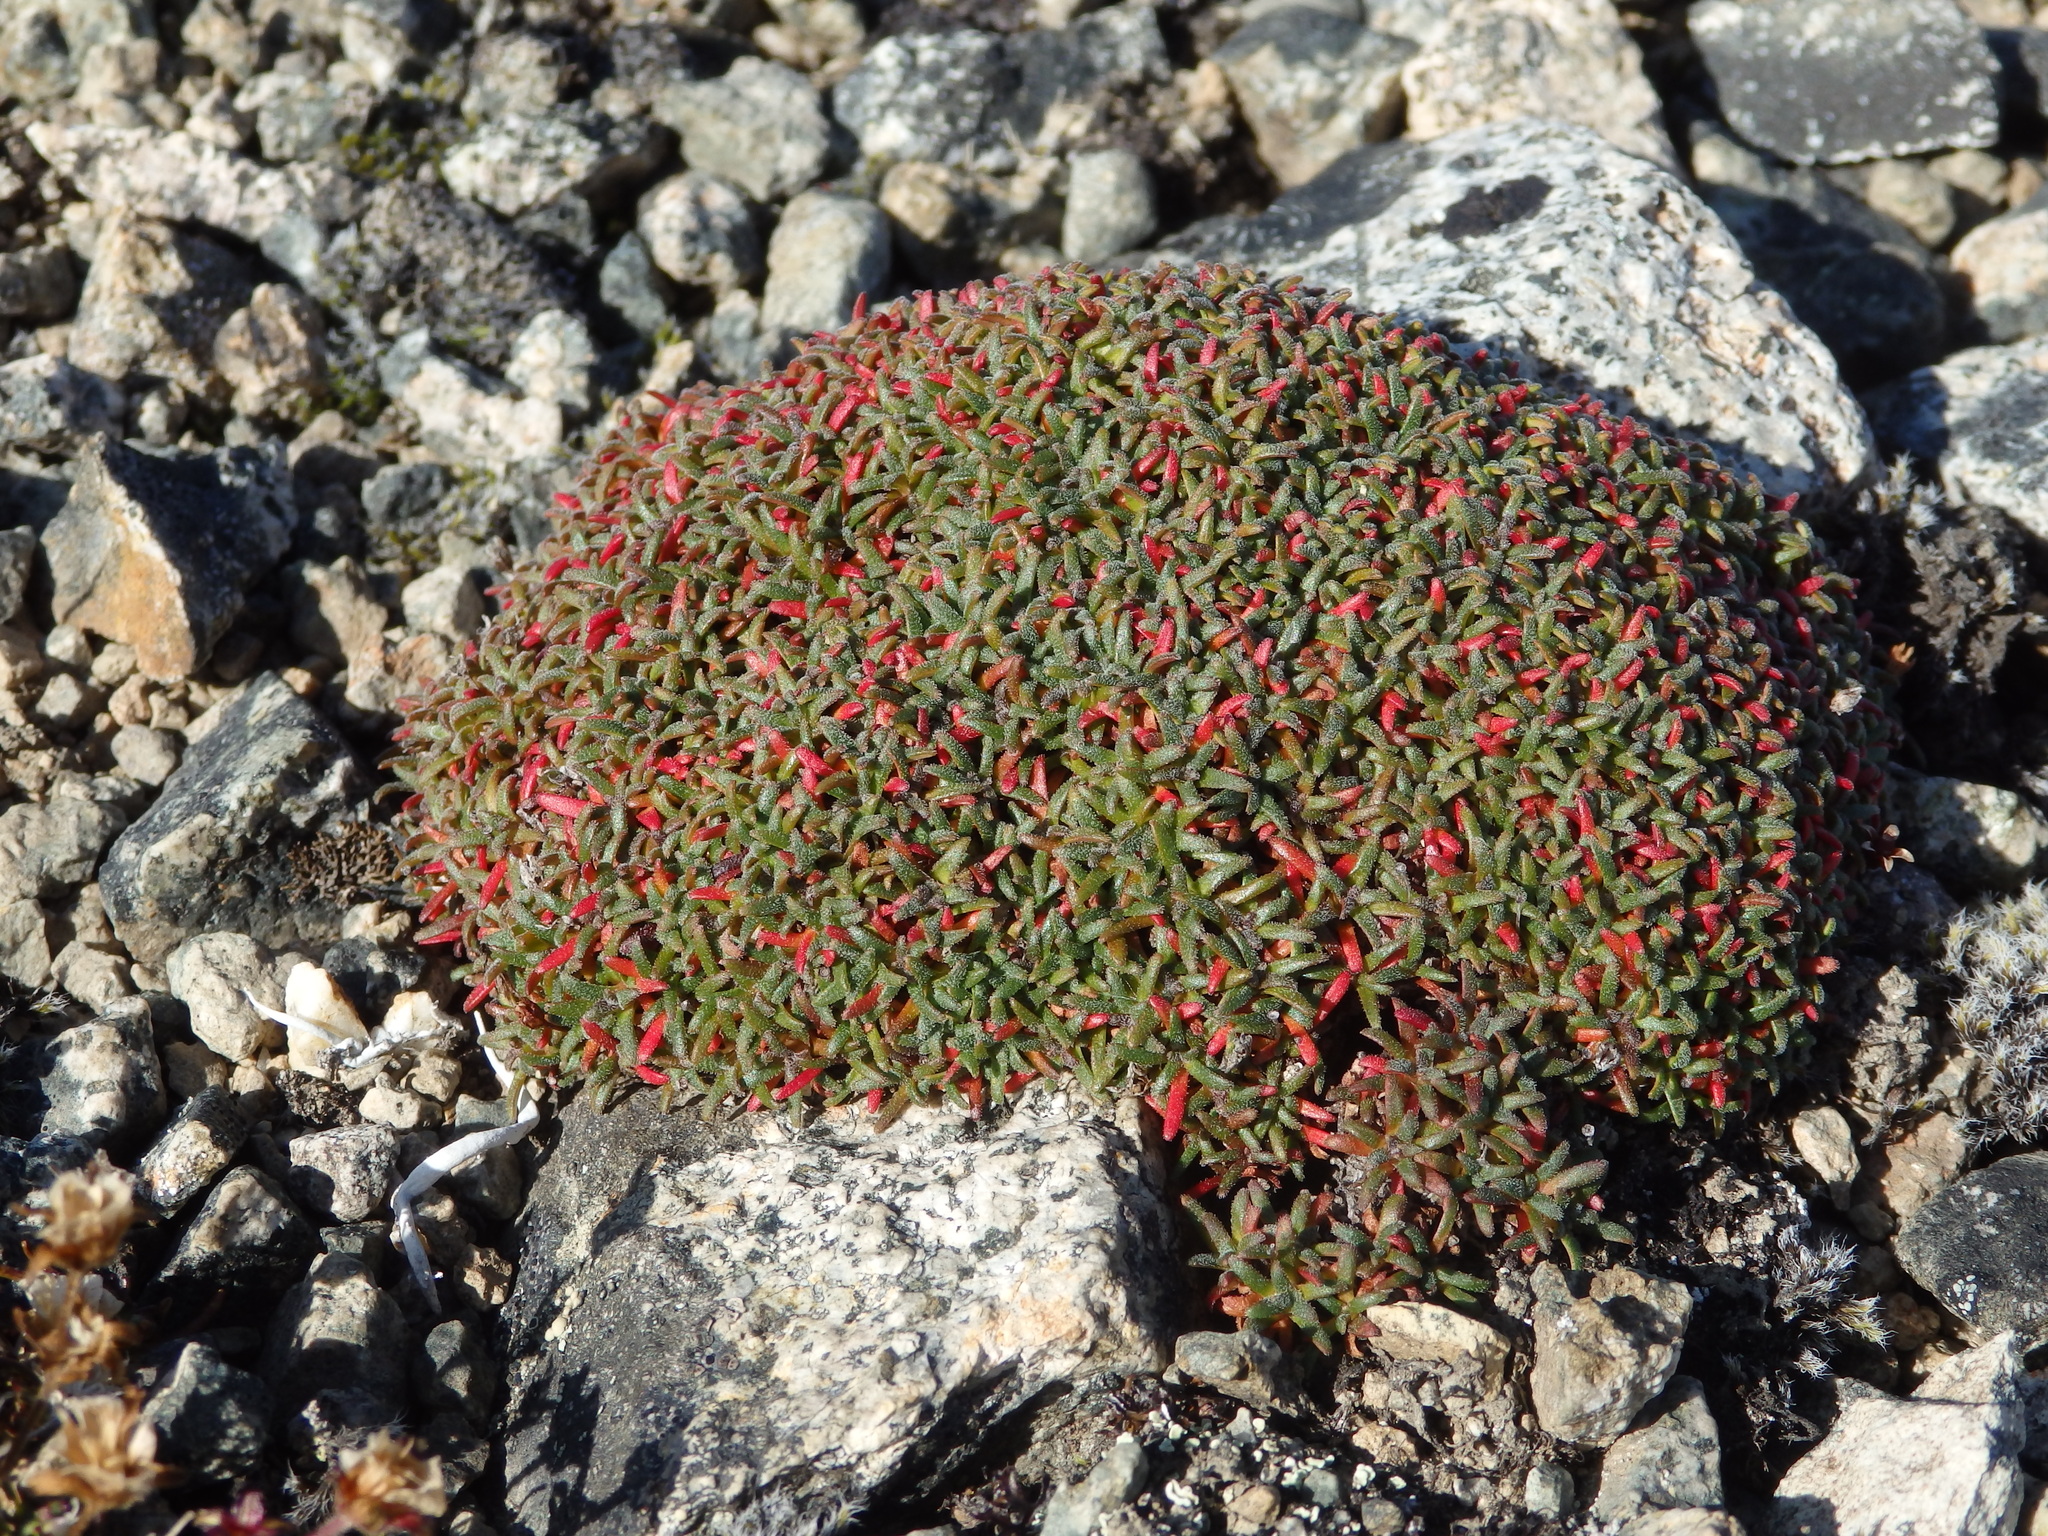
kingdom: Plantae
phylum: Tracheophyta
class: Magnoliopsida
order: Ericales
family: Primulaceae
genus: Androsace
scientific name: Androsace ochotensis
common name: Alaska dwarf-primrose
